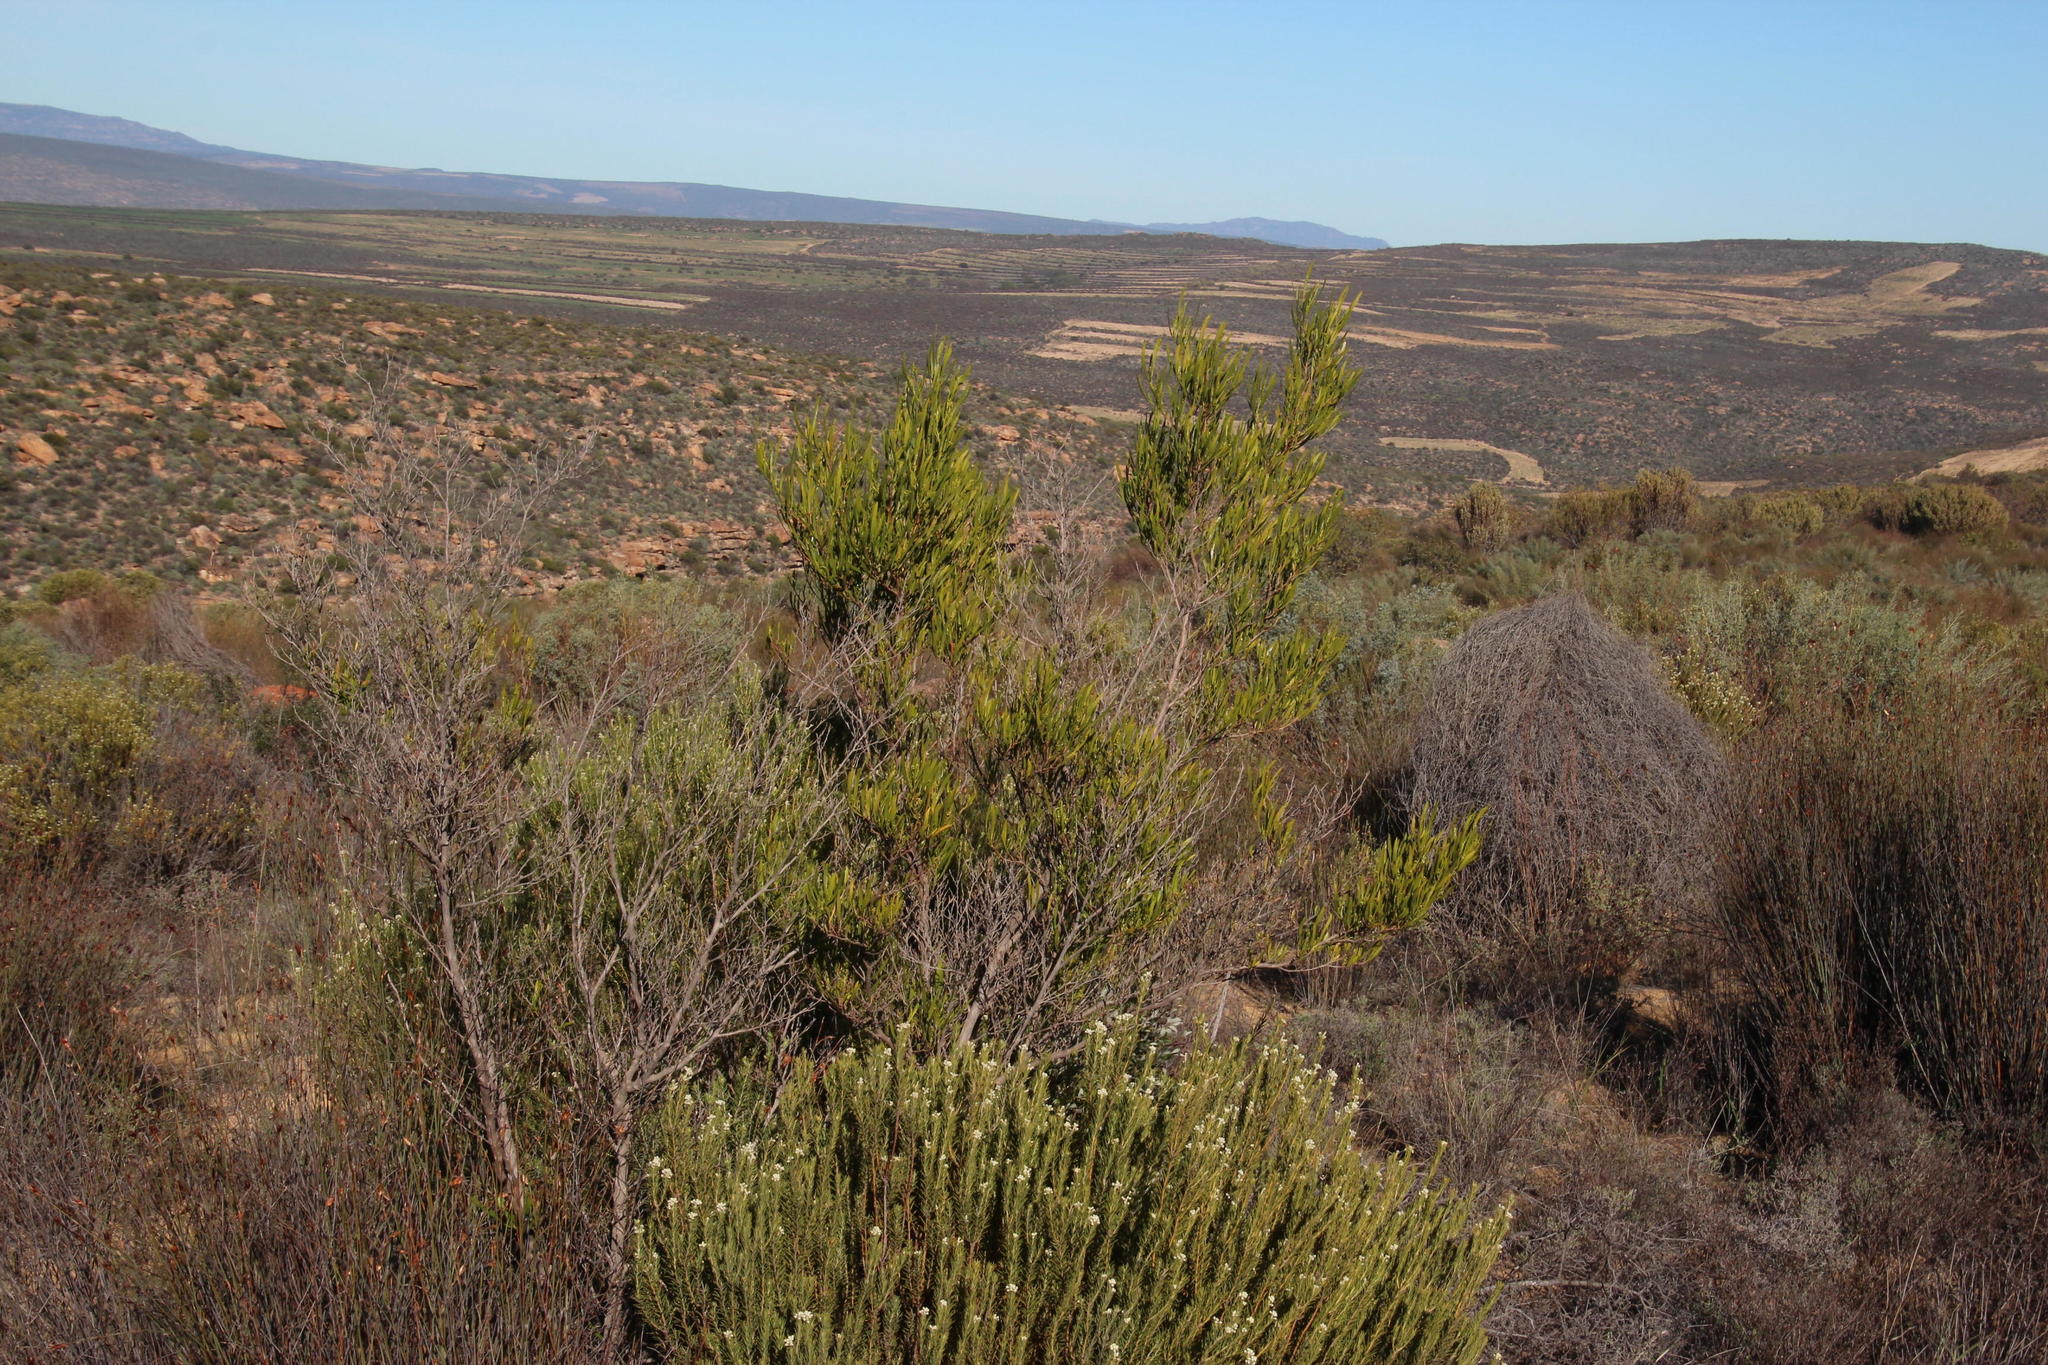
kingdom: Plantae
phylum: Tracheophyta
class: Magnoliopsida
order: Sapindales
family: Sapindaceae
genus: Dodonaea
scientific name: Dodonaea viscosa
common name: Hopbush
